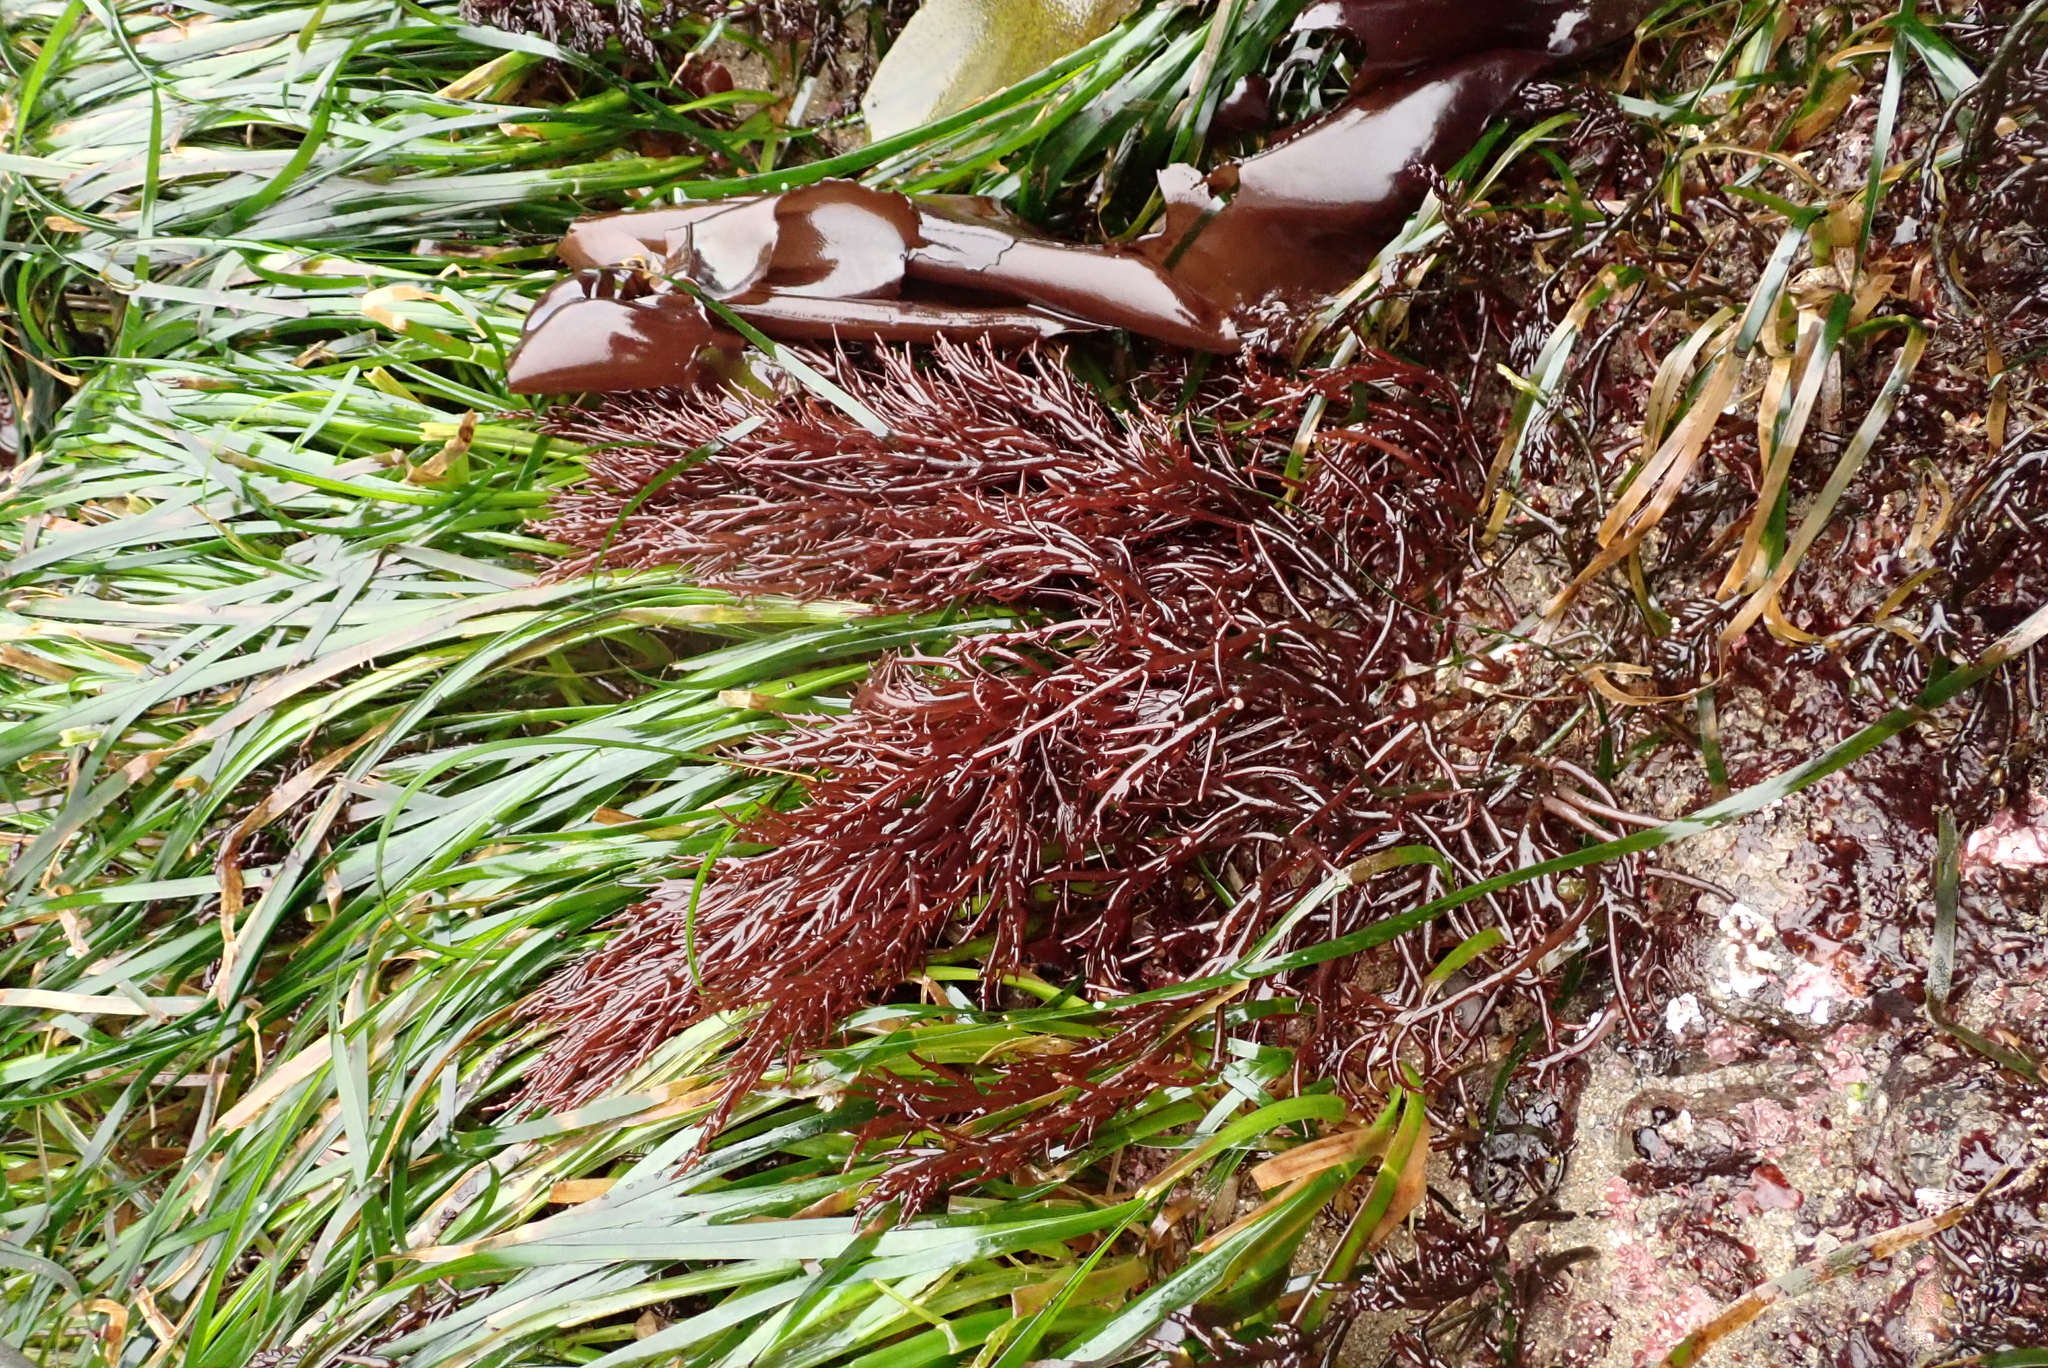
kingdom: Plantae
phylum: Rhodophyta
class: Florideophyceae
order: Gigartinales
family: Solieriaceae
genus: Sarcodiotheca
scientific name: Sarcodiotheca gaudichaudii
